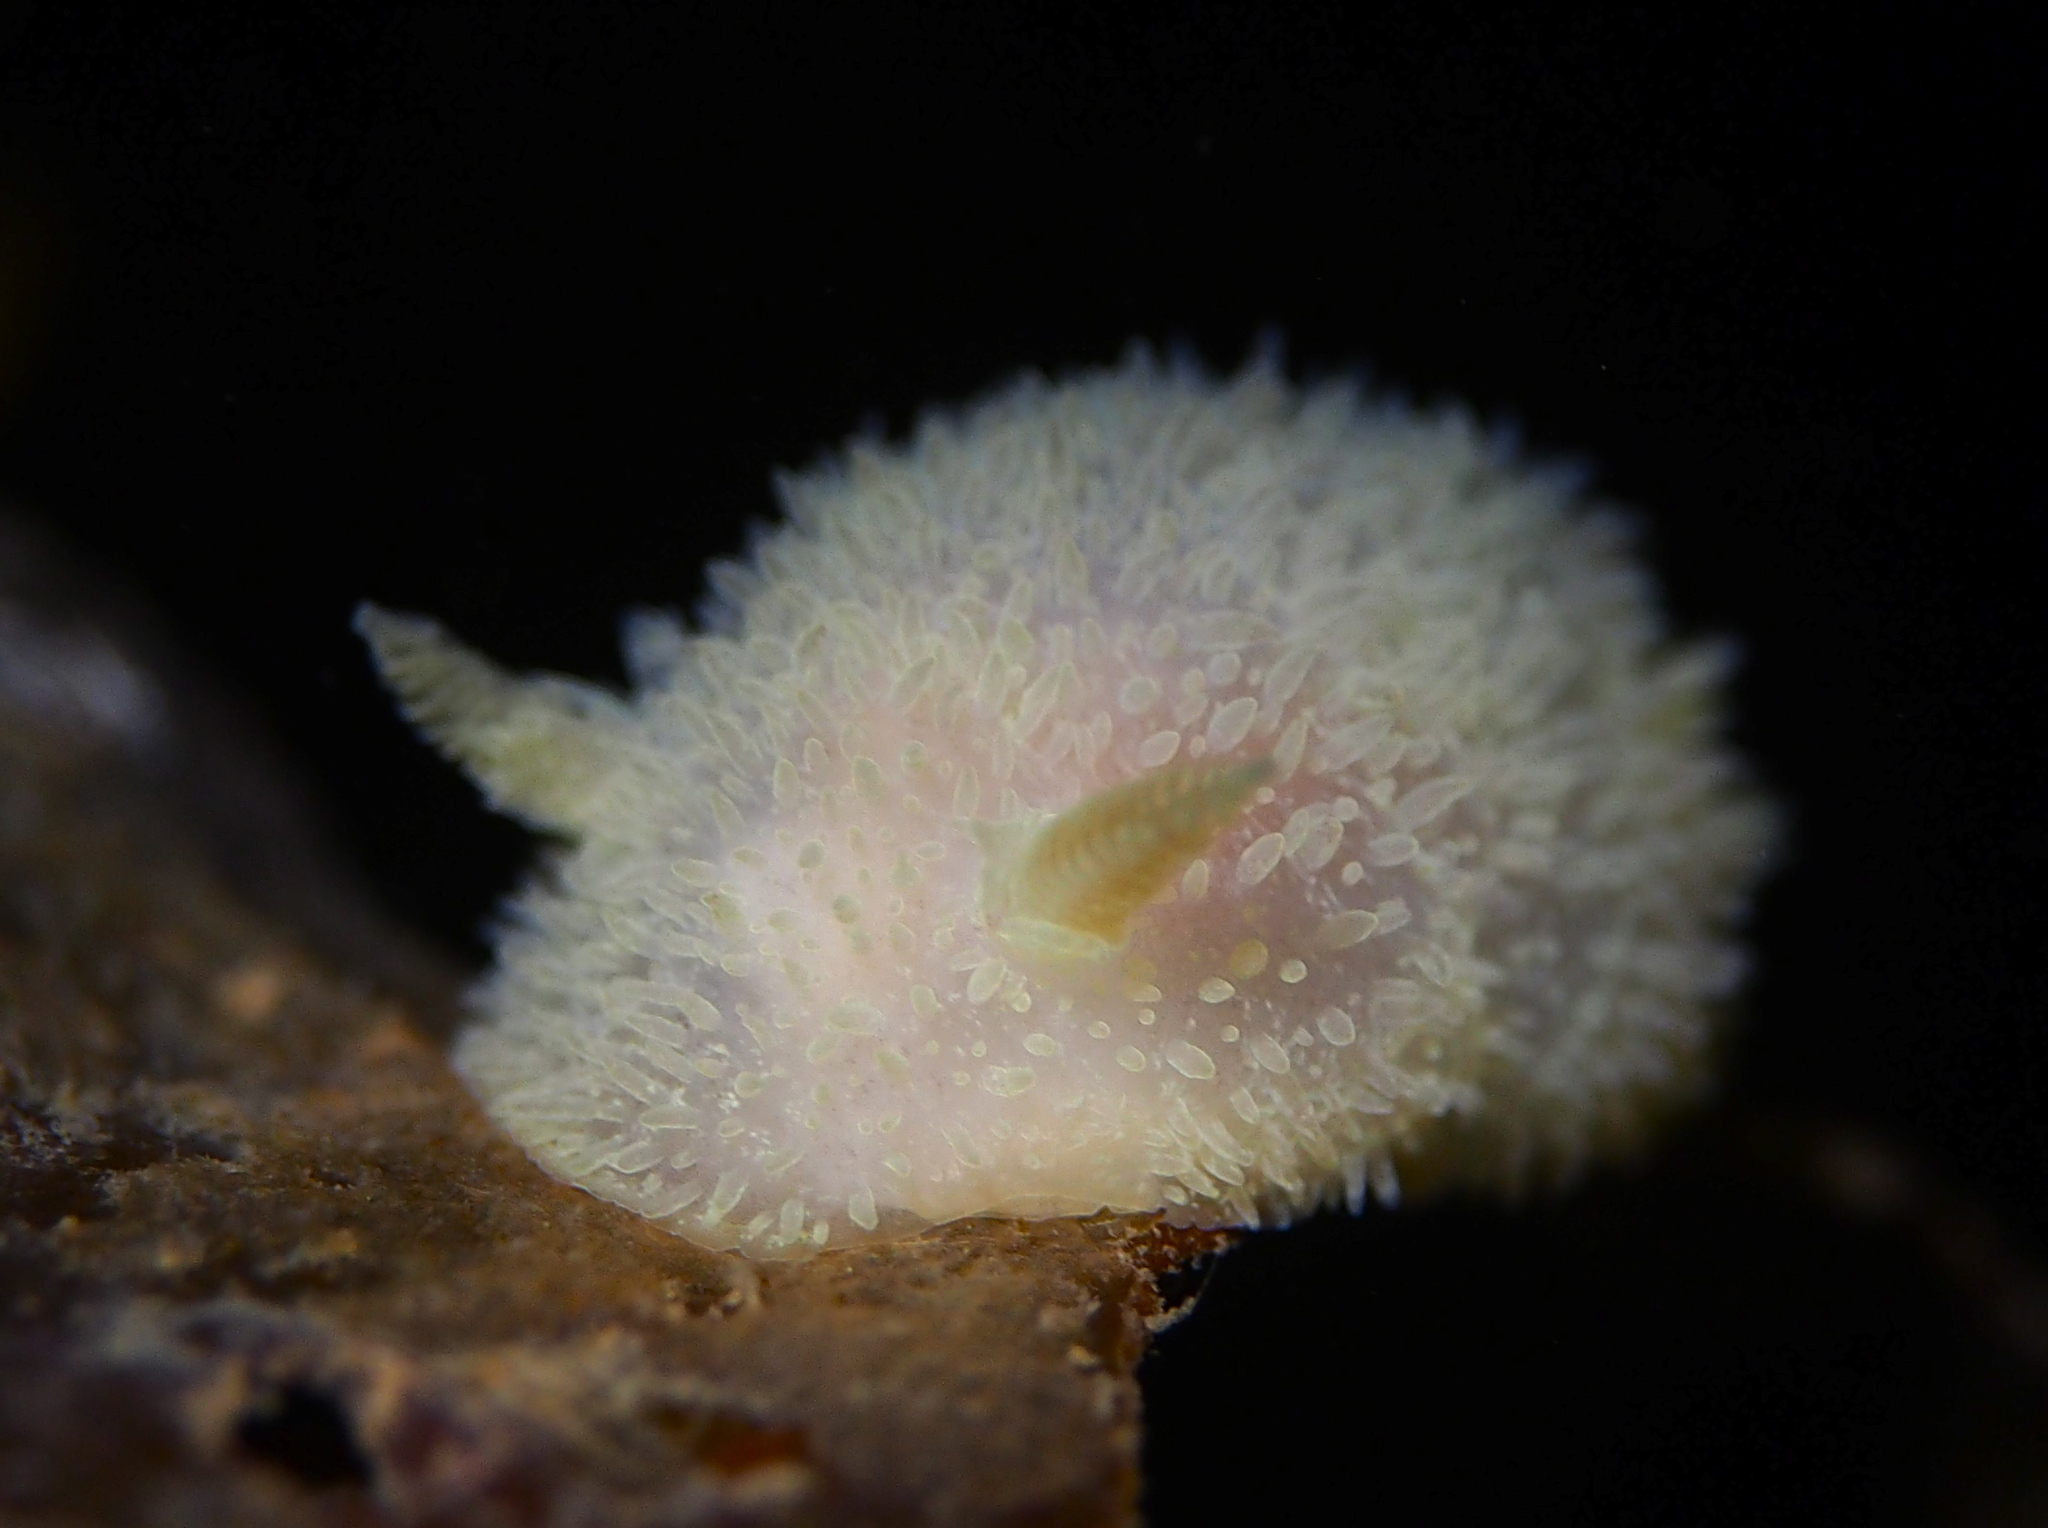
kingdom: Animalia
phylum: Mollusca
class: Gastropoda
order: Nudibranchia
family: Onchidorididae
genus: Acanthodoris
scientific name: Acanthodoris pilosa
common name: Hairy spiny doris
